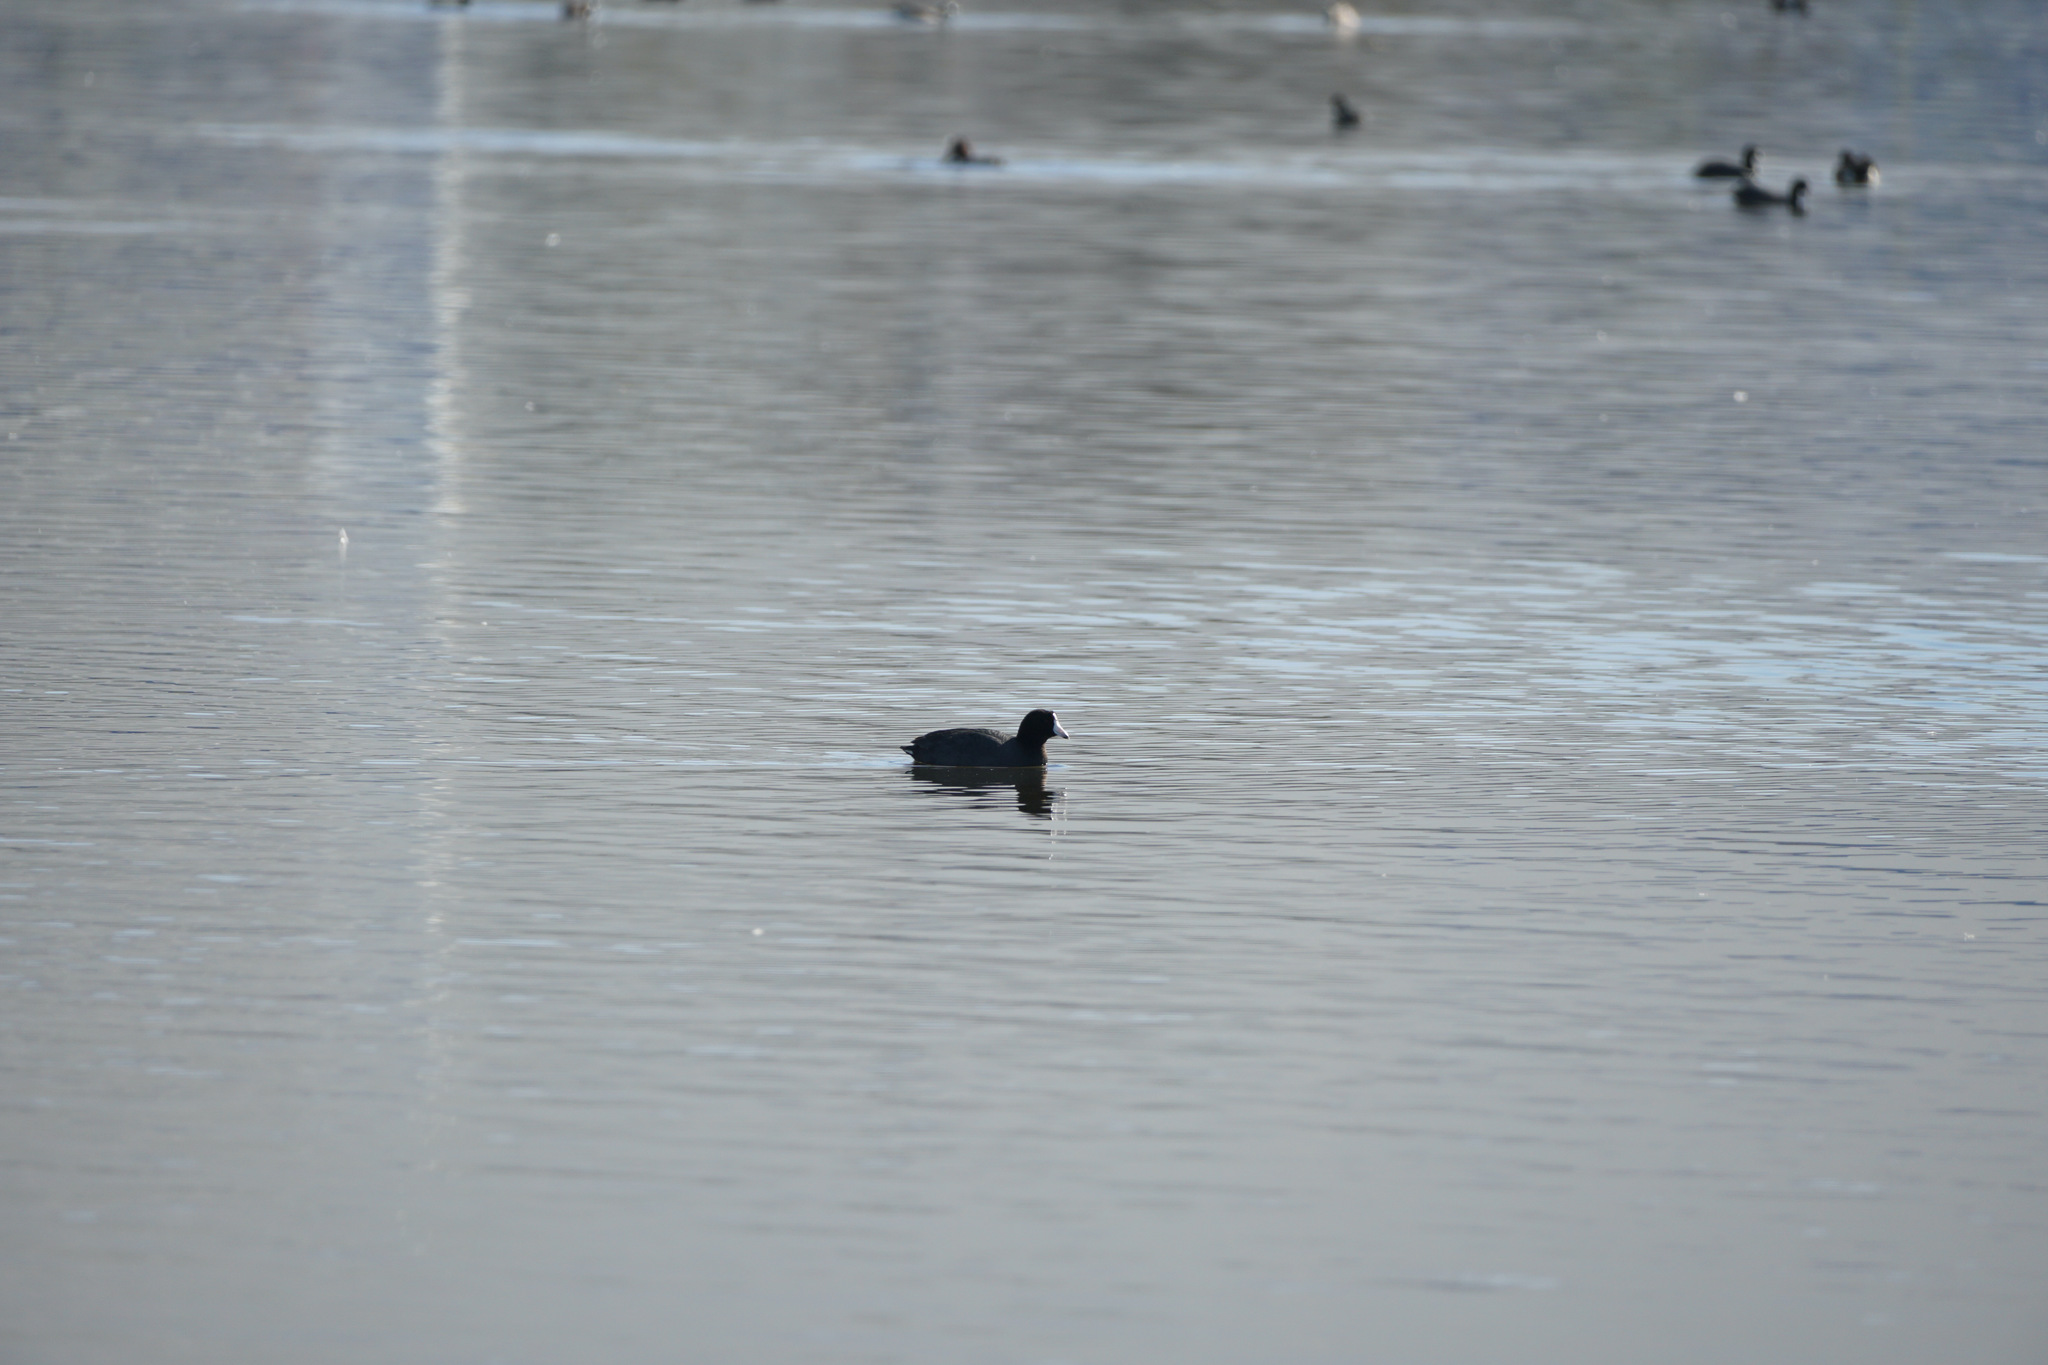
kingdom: Animalia
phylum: Chordata
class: Aves
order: Gruiformes
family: Rallidae
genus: Fulica
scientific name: Fulica americana
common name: American coot
